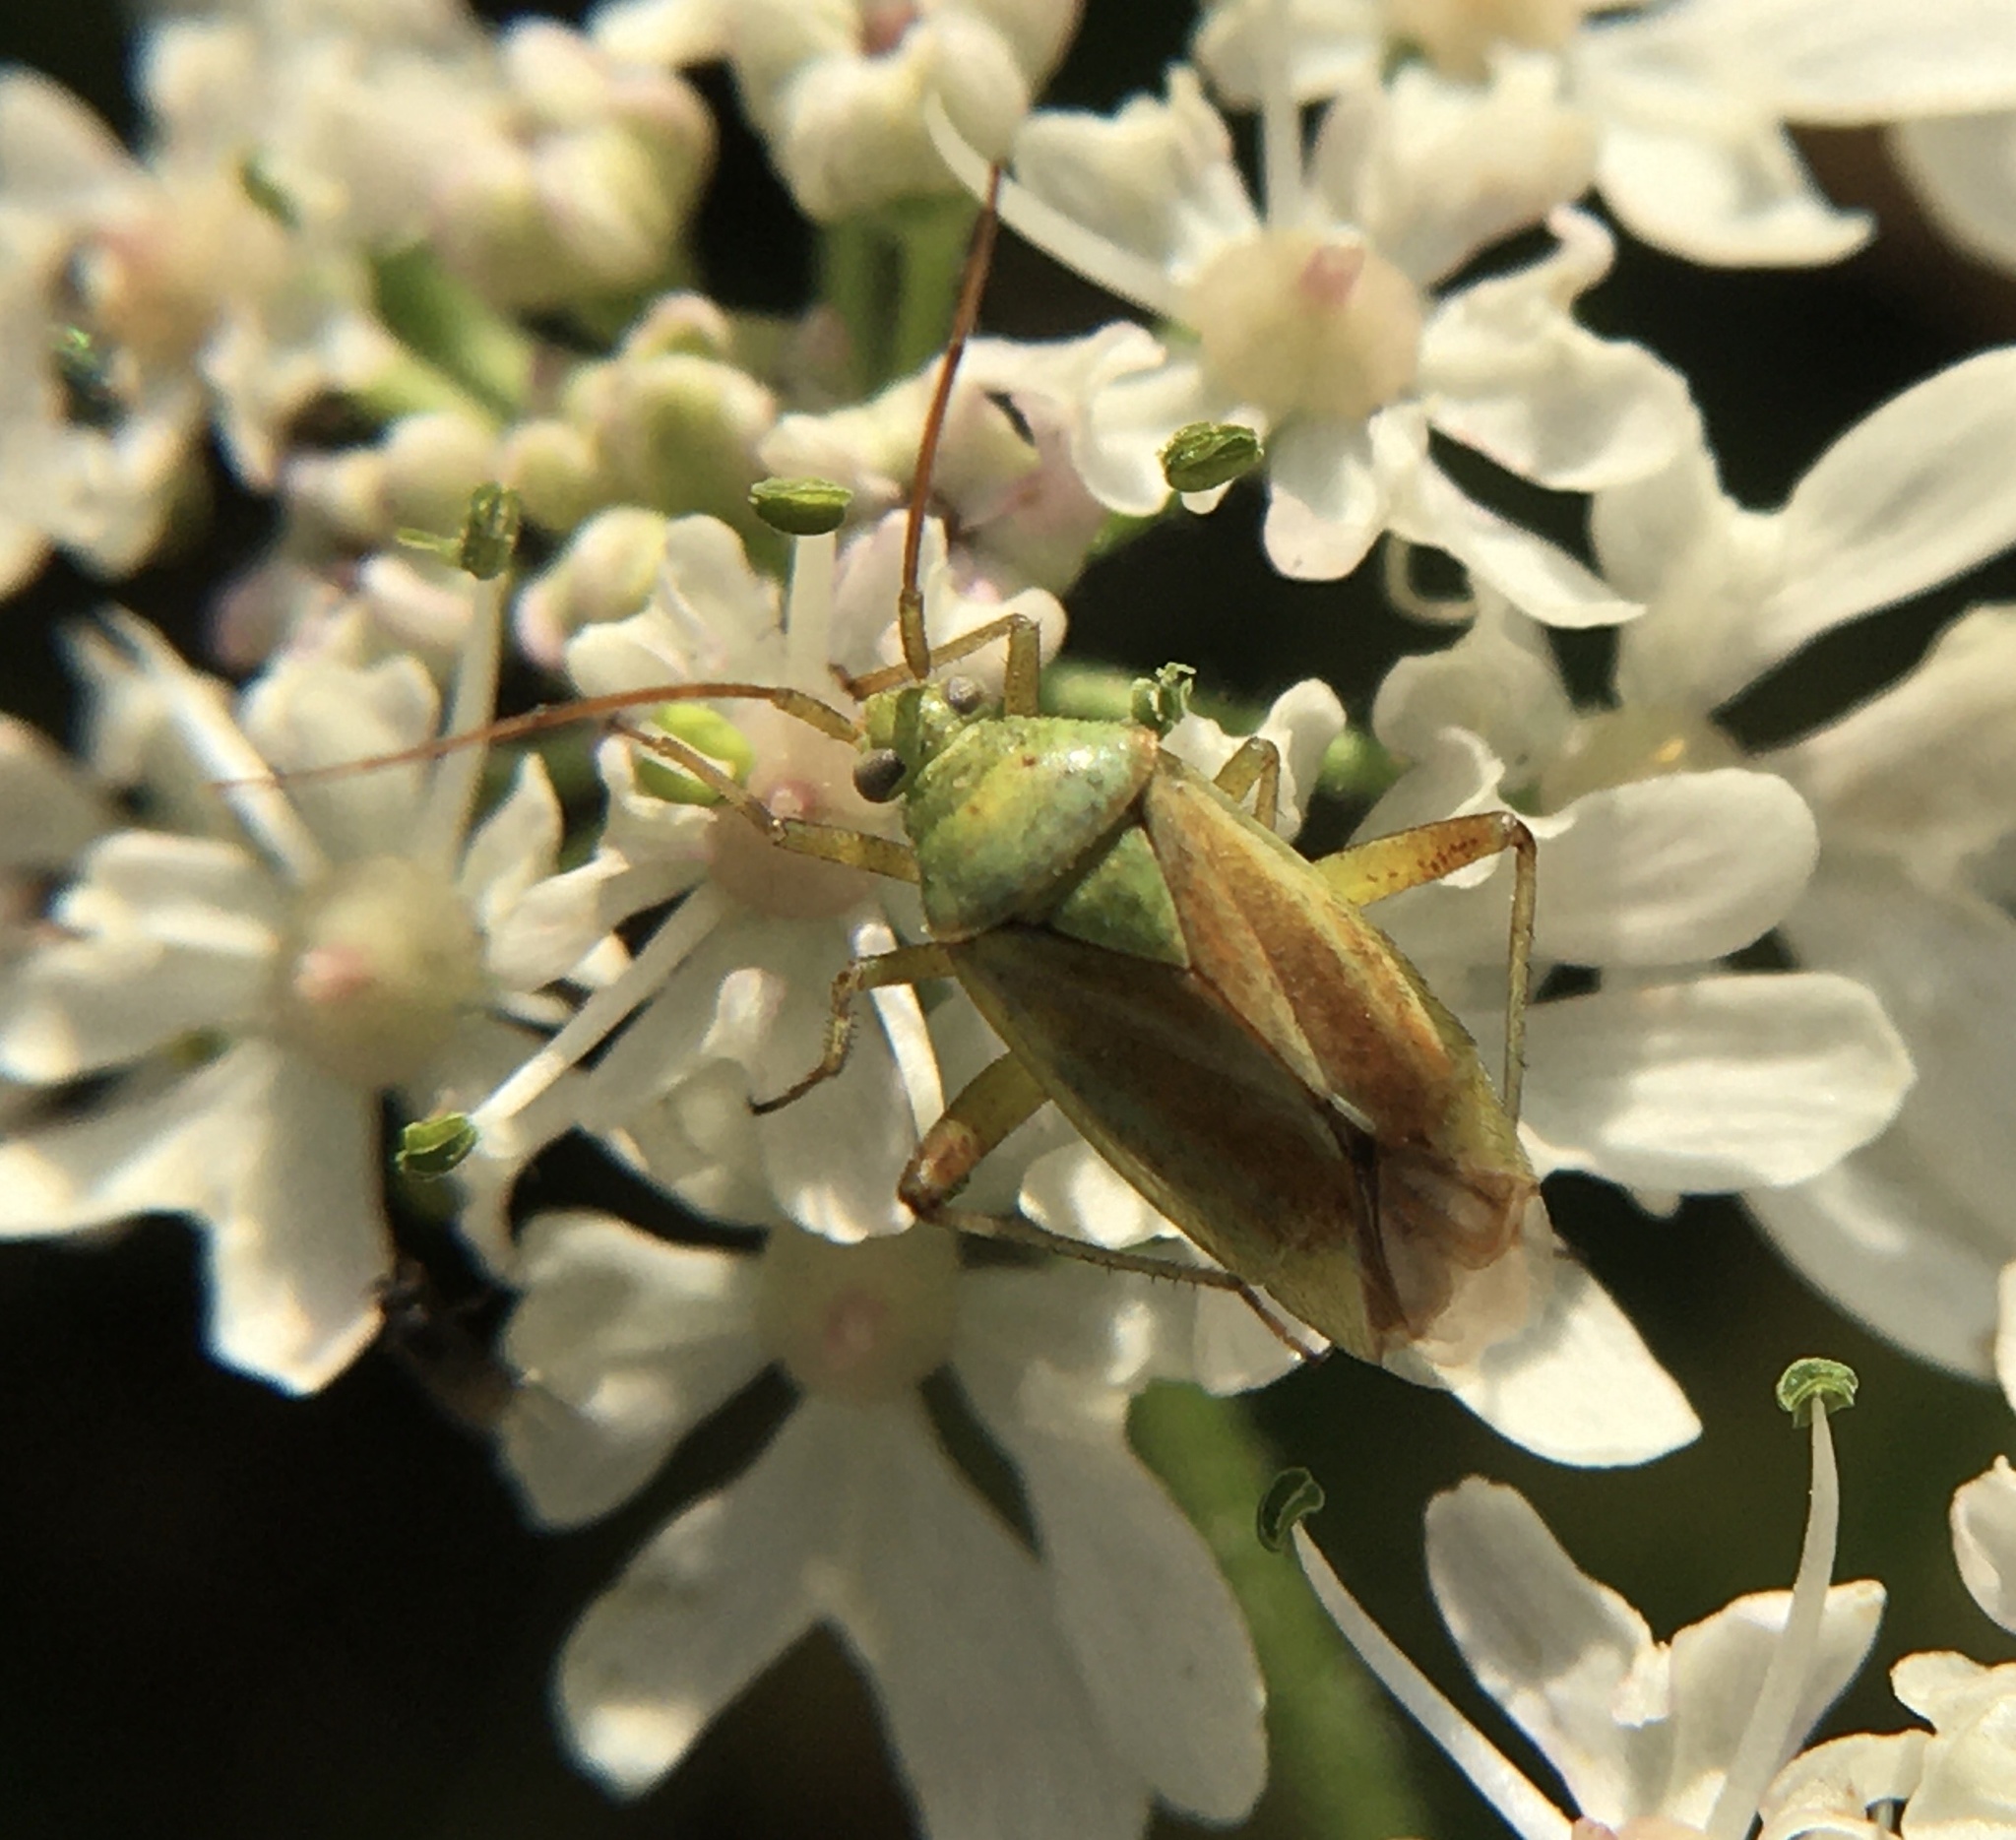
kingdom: Animalia
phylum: Arthropoda
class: Insecta
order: Hemiptera
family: Miridae
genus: Closterotomus
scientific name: Closterotomus norvegicus
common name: Plant bug
